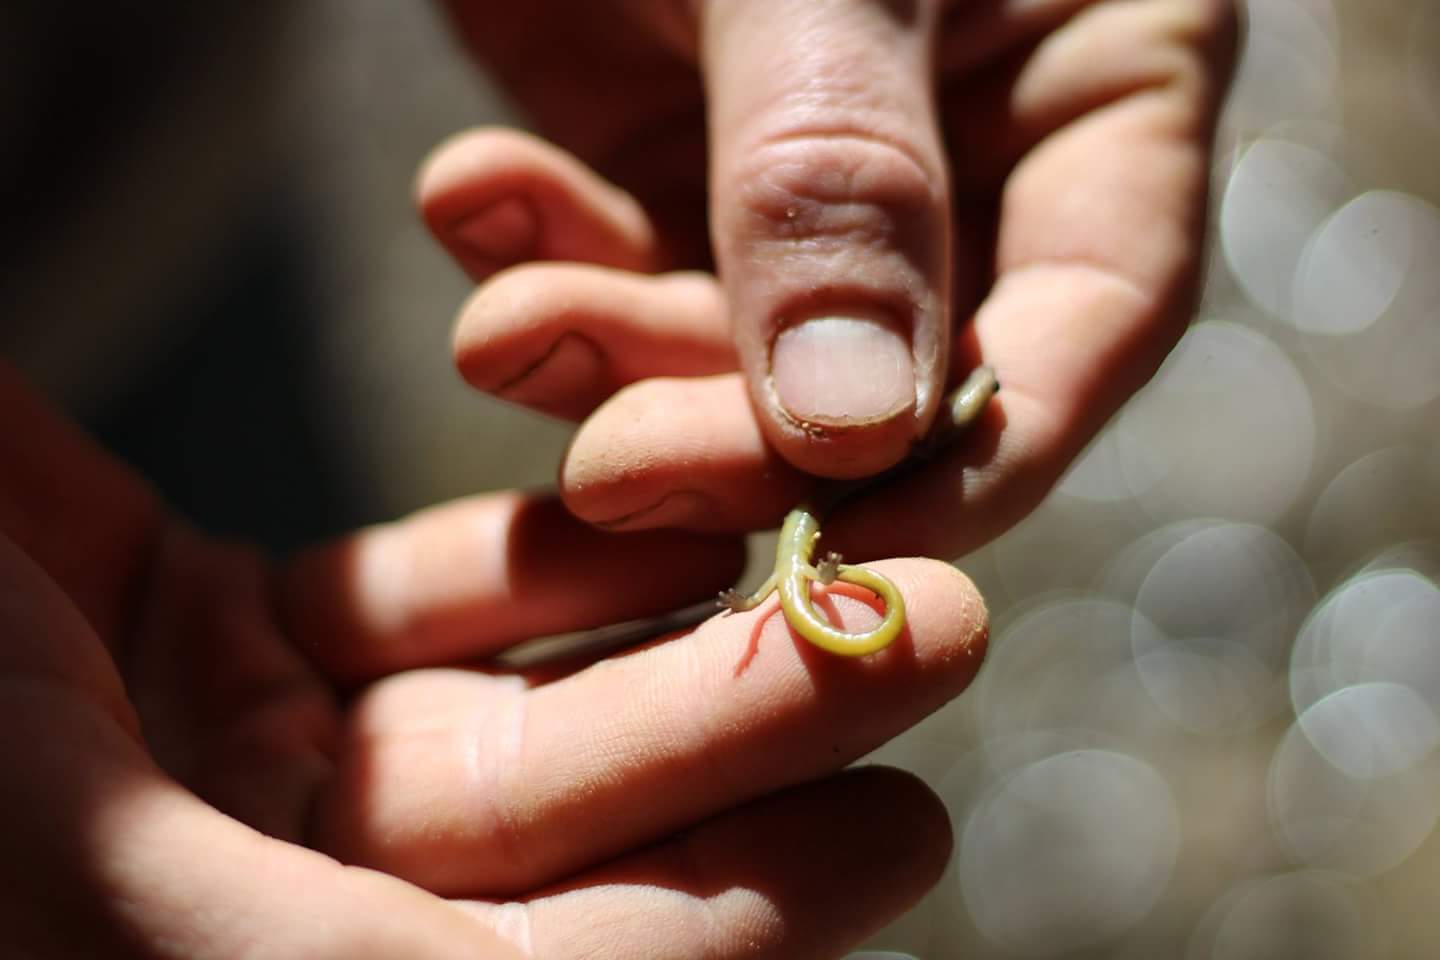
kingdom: Animalia
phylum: Chordata
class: Amphibia
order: Caudata
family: Plethodontidae
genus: Eurycea
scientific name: Eurycea tynerensis
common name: Oklahoma salamander
